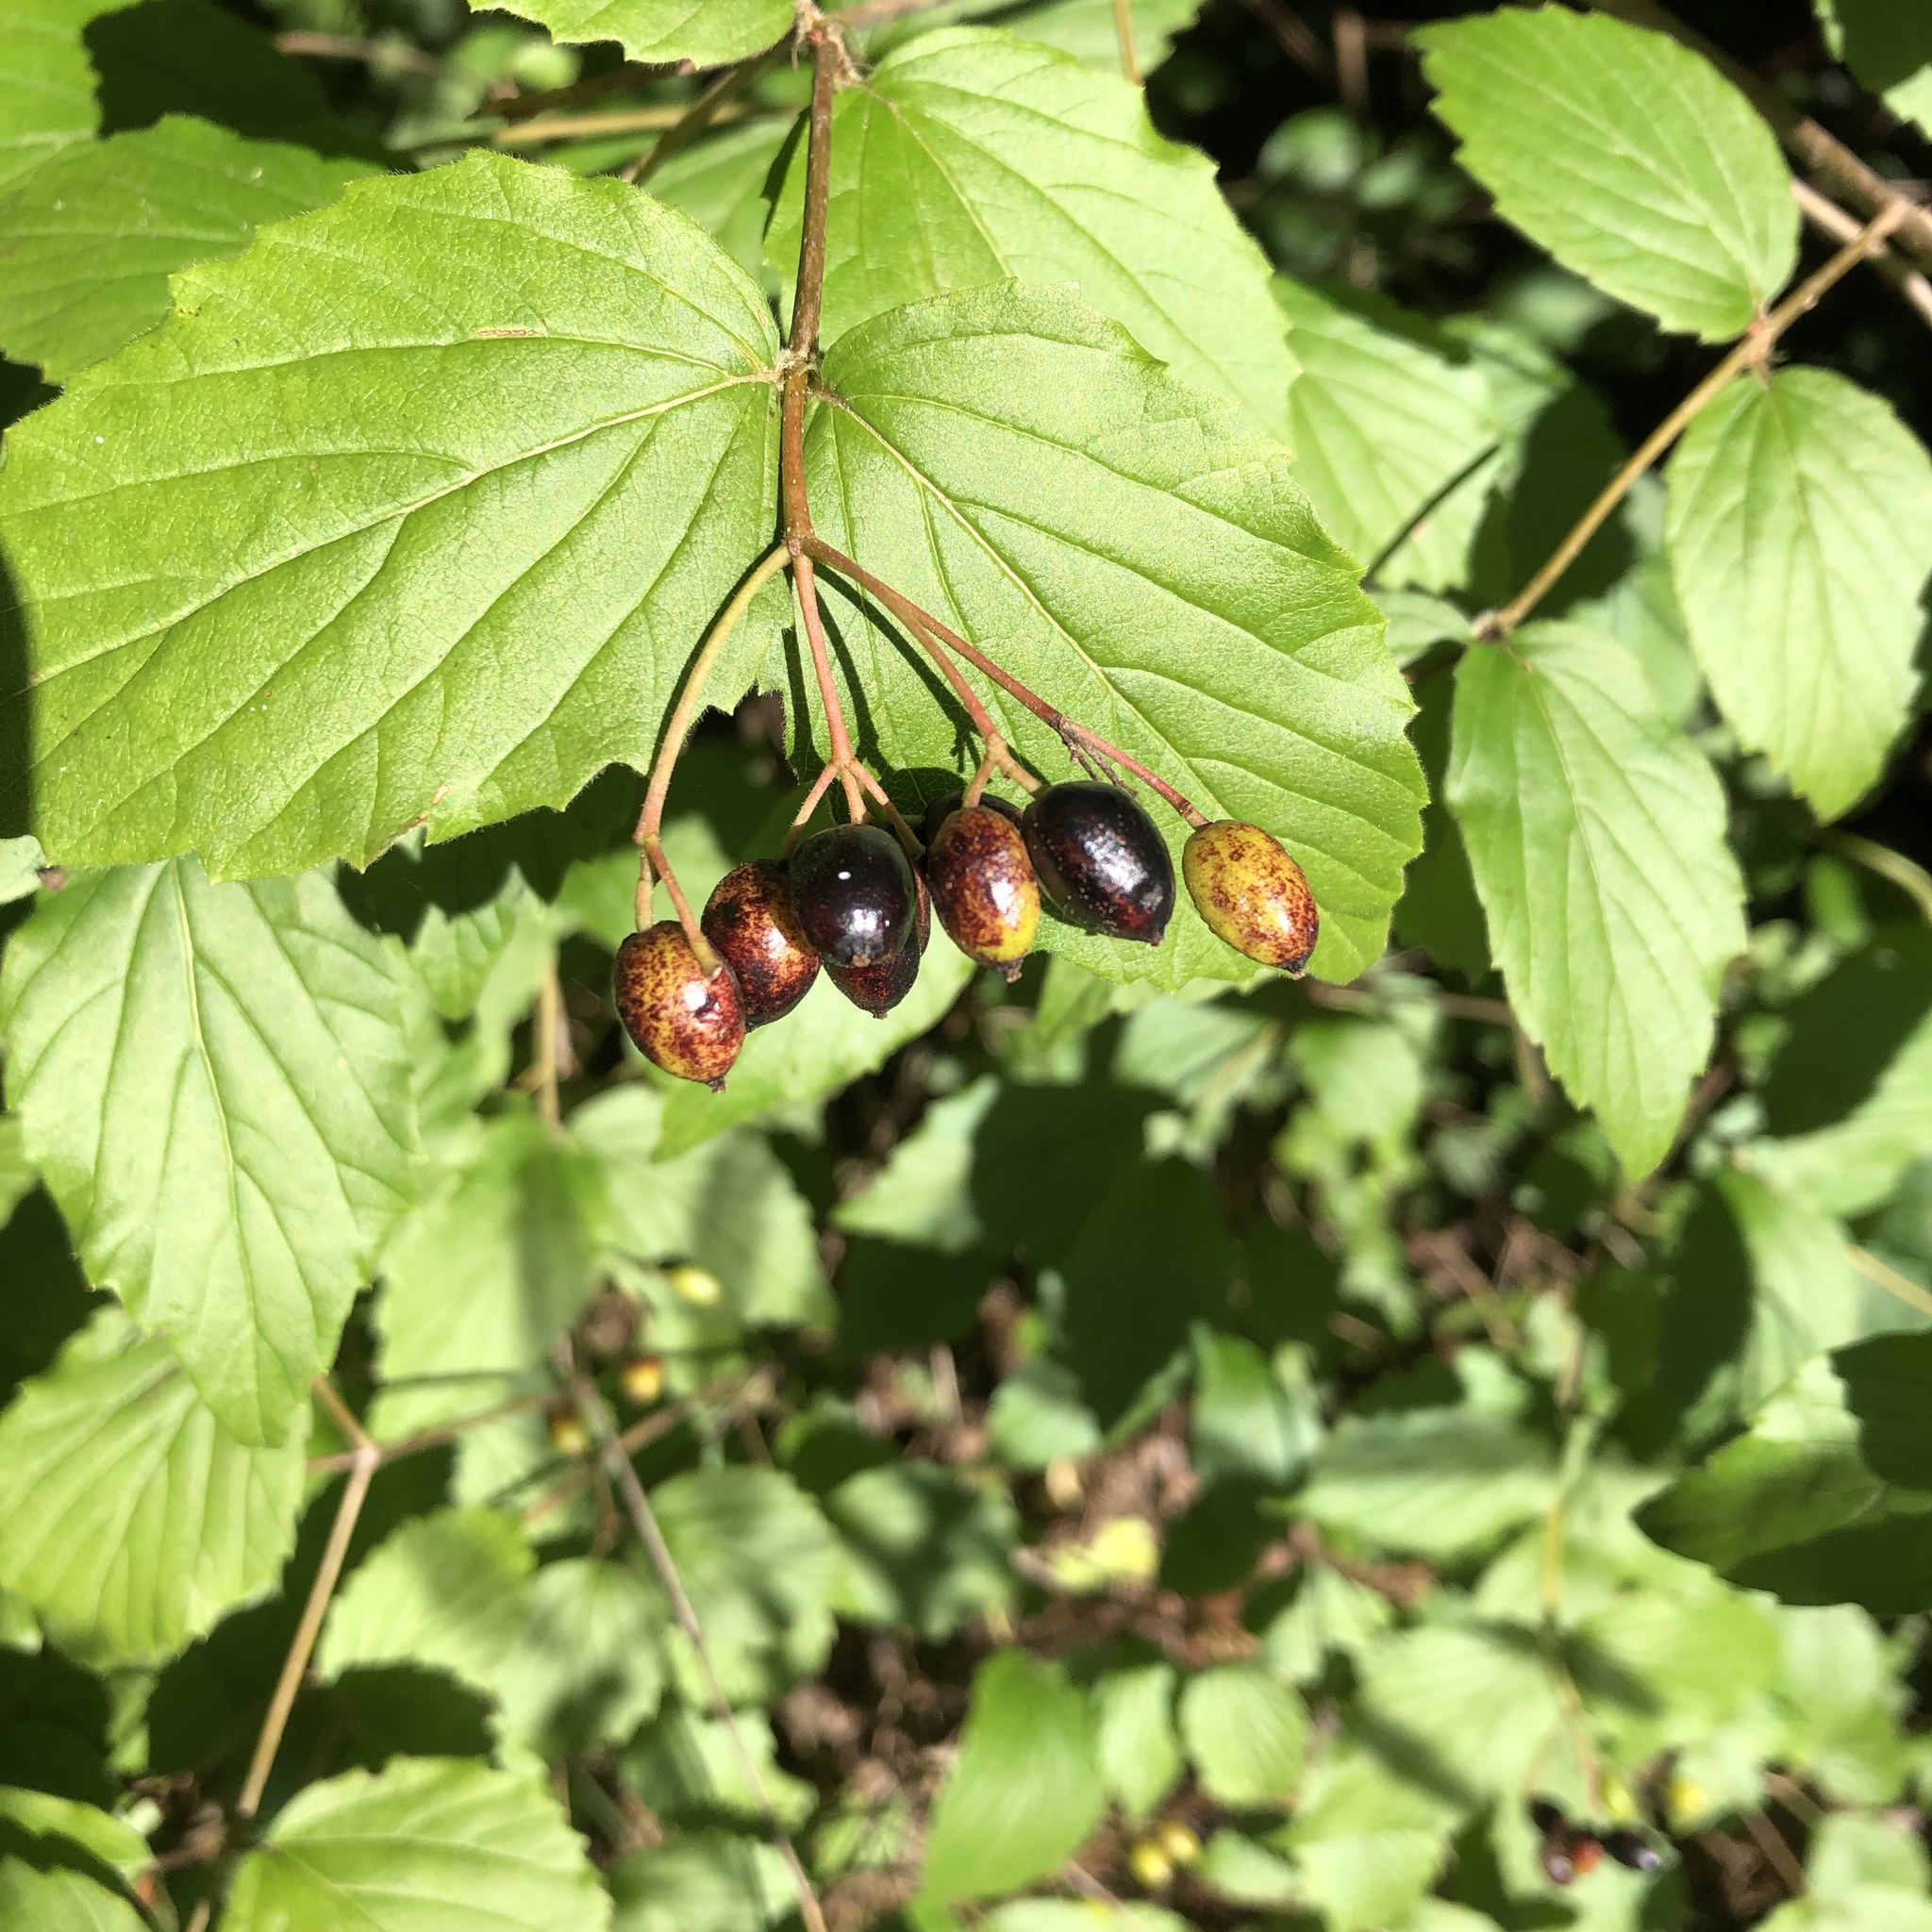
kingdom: Plantae
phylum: Tracheophyta
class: Magnoliopsida
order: Dipsacales
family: Viburnaceae
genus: Viburnum
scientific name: Viburnum rafinesqueanum
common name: Downy arrow-wood
